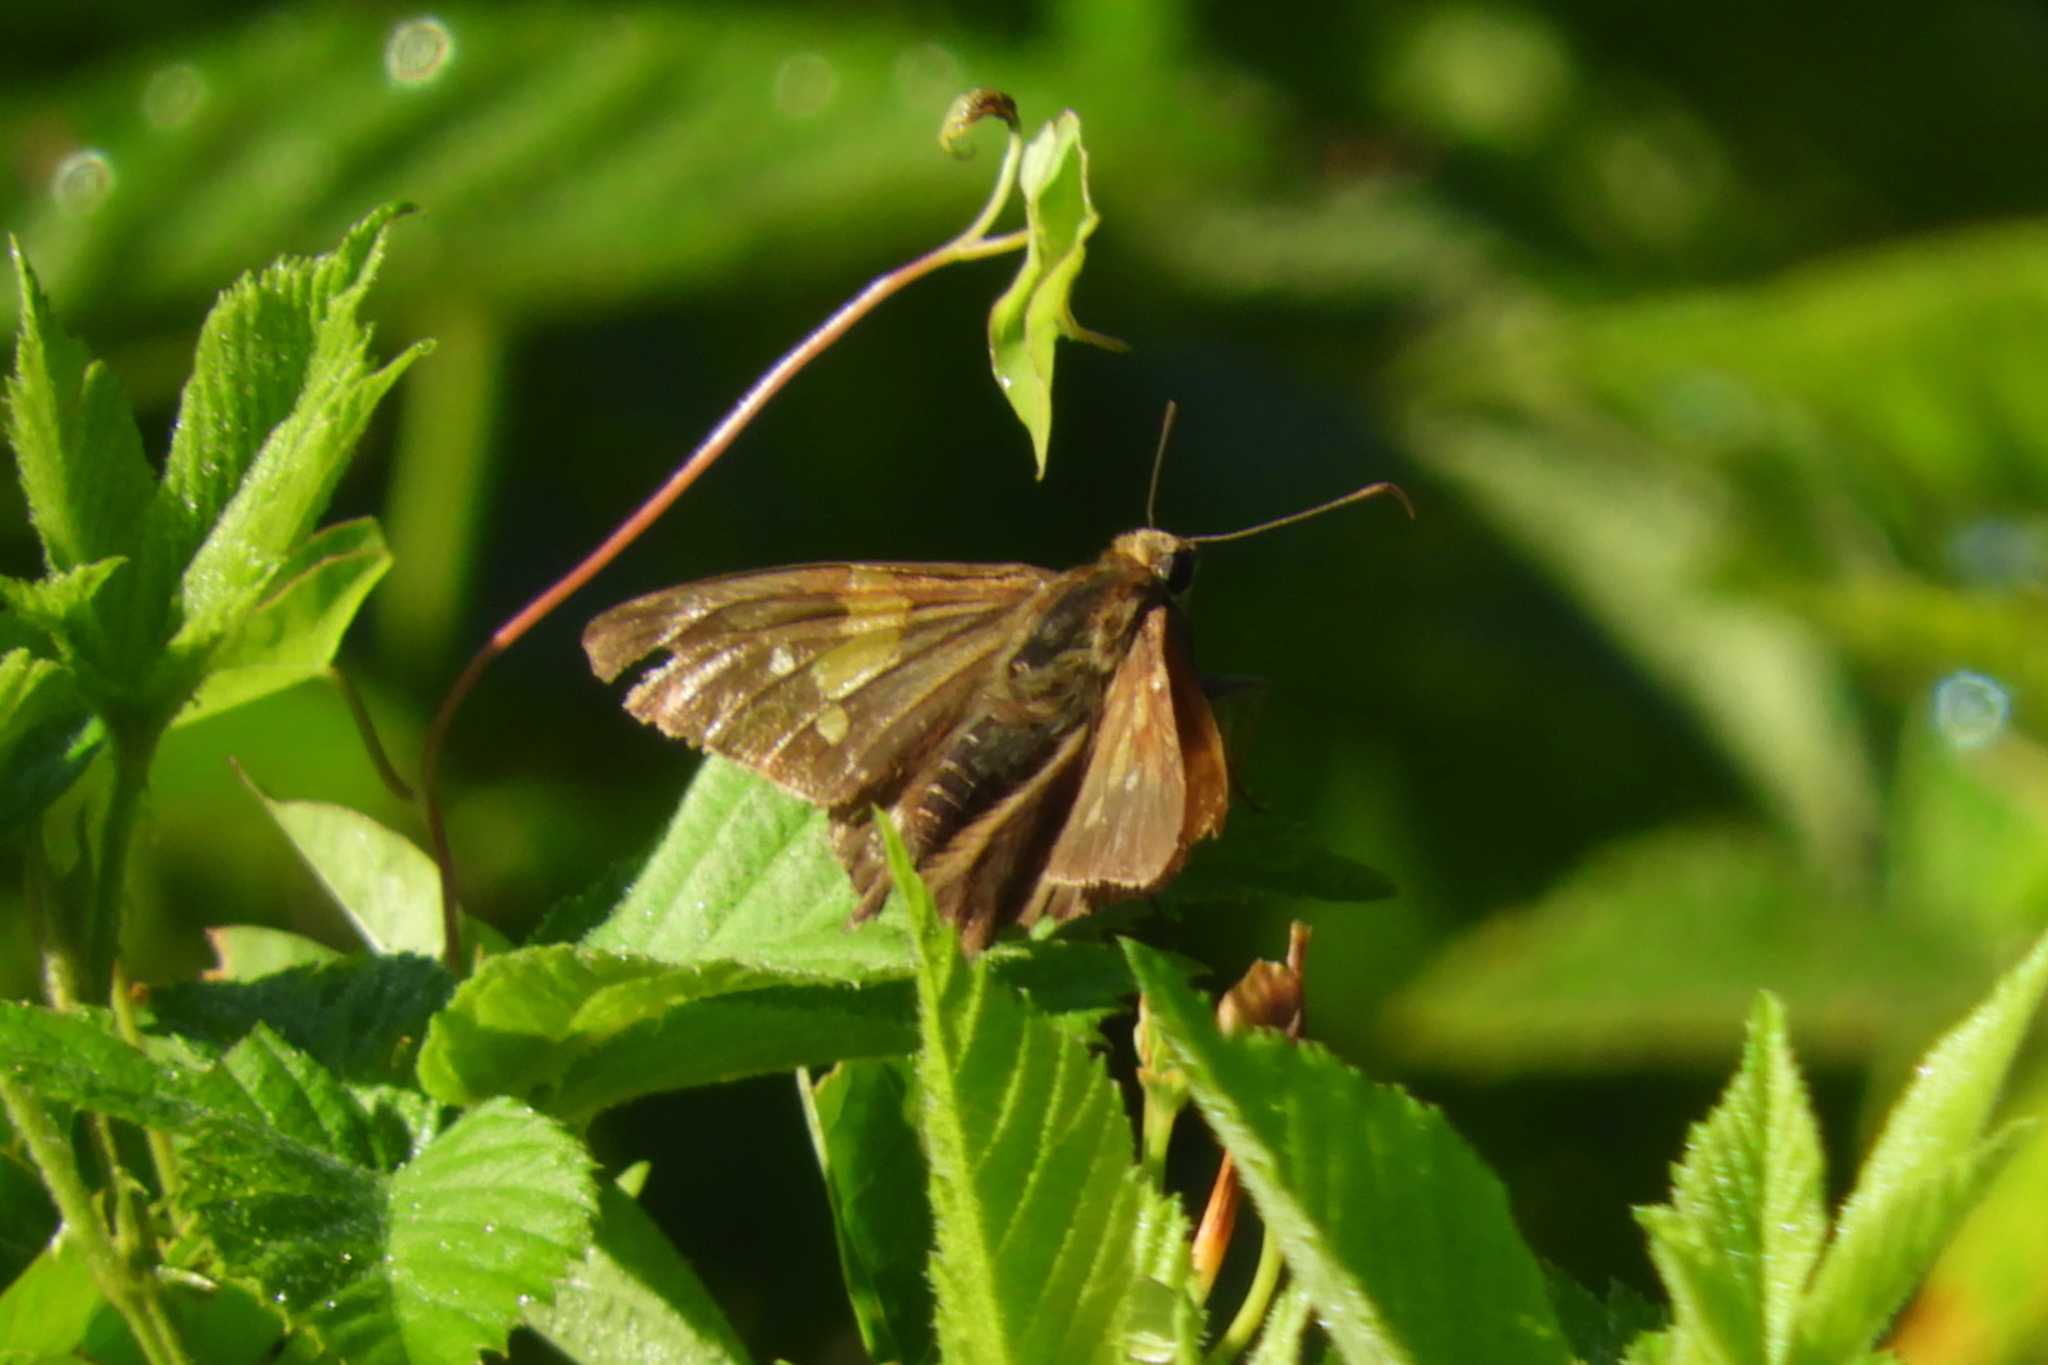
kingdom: Animalia
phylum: Arthropoda
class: Insecta
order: Lepidoptera
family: Hesperiidae
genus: Epargyreus
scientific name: Epargyreus clarus
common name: Silver-spotted skipper
